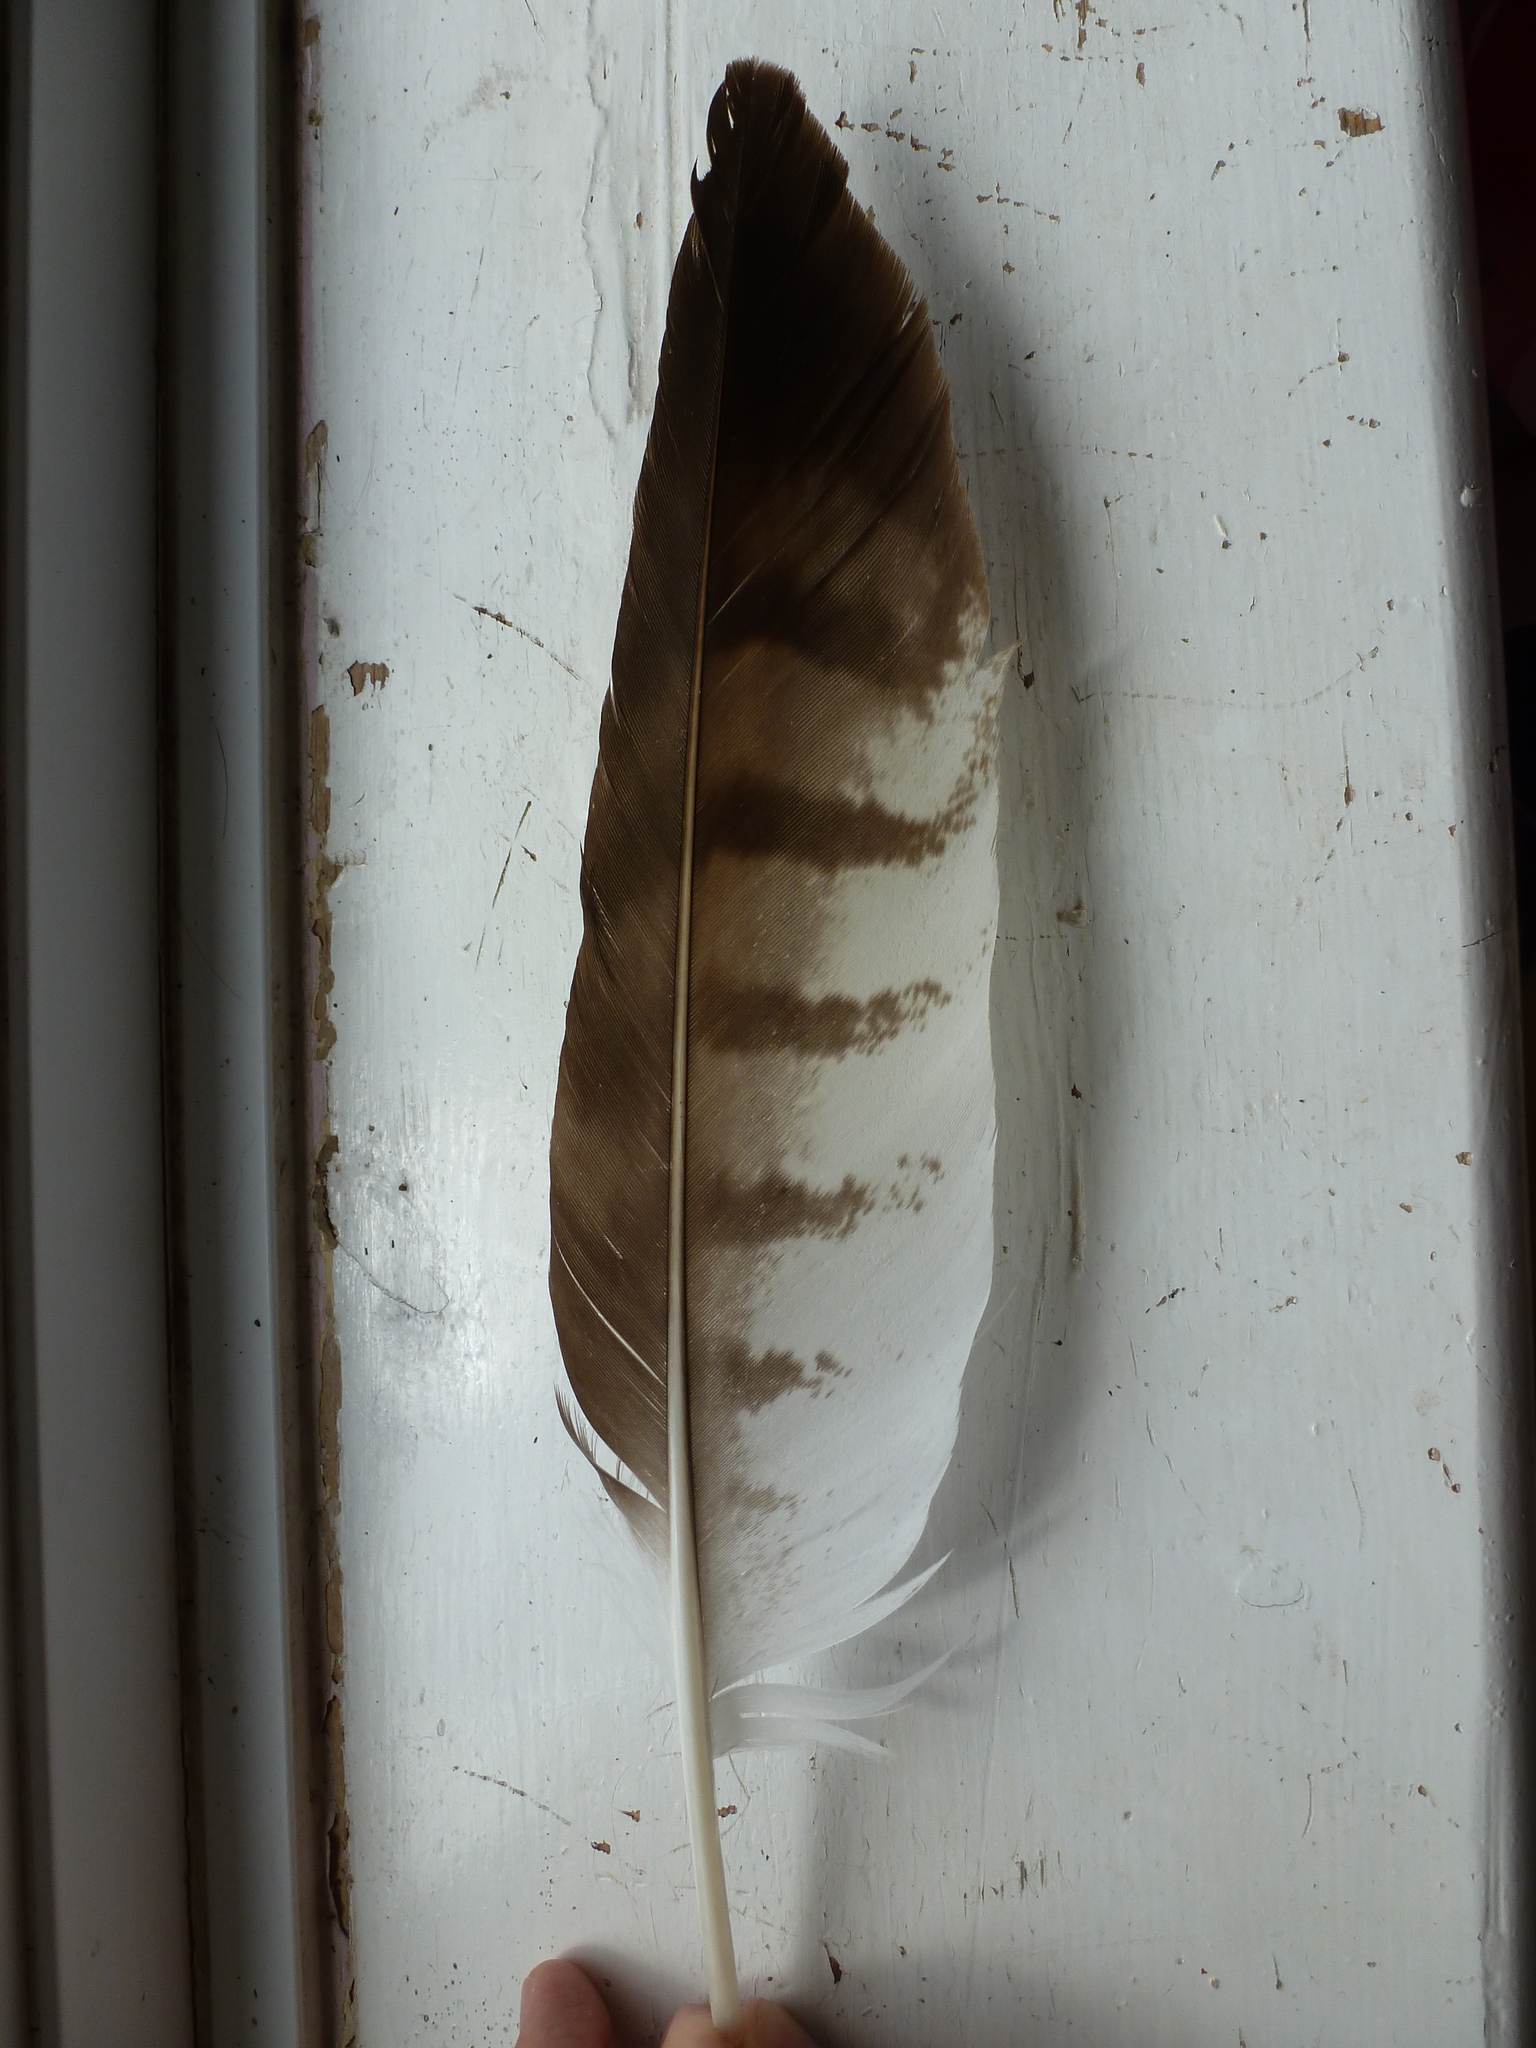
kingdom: Animalia
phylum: Chordata
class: Aves
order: Accipitriformes
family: Accipitridae
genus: Buteo
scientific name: Buteo buteo
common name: Common buzzard
